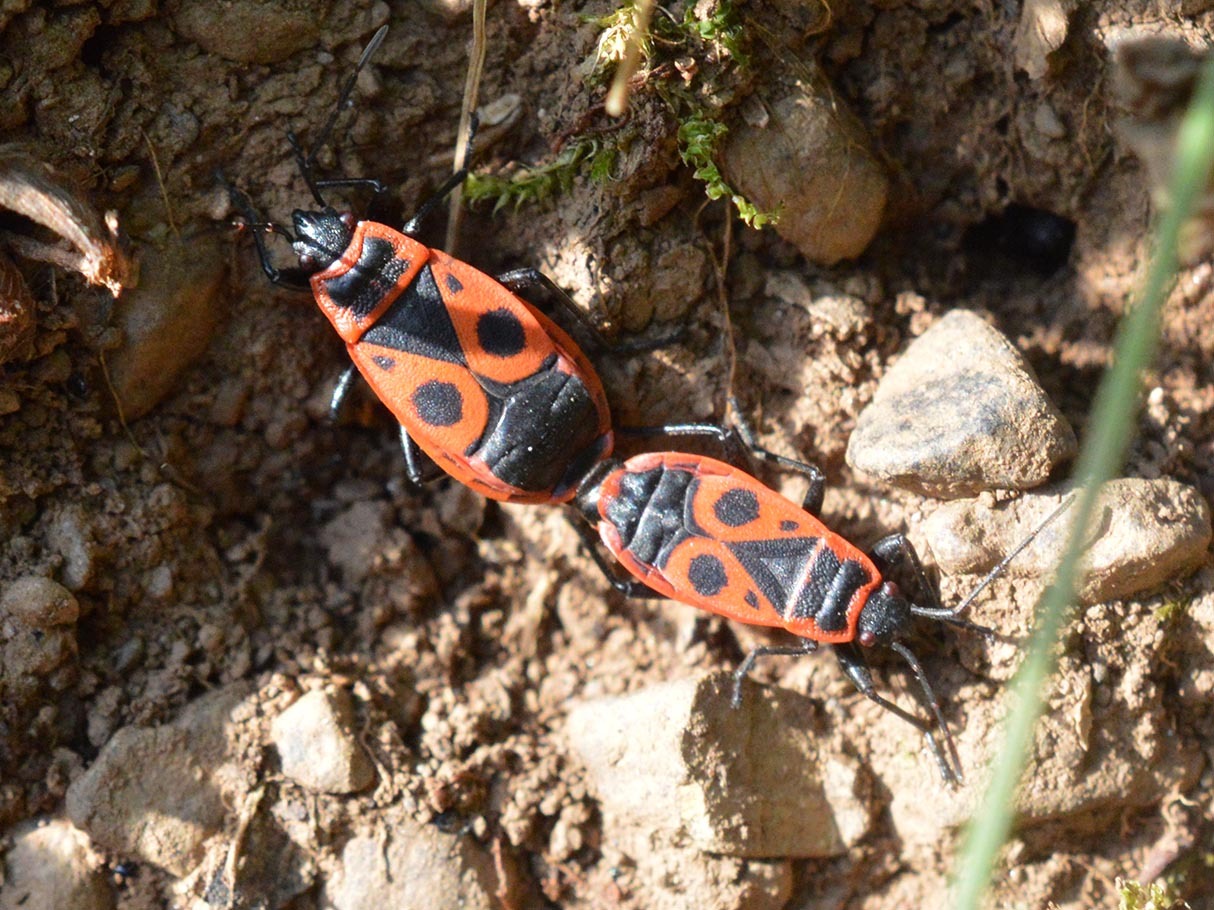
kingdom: Animalia
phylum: Arthropoda
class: Insecta
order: Hemiptera
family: Pyrrhocoridae
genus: Pyrrhocoris
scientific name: Pyrrhocoris apterus
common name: Firebug
